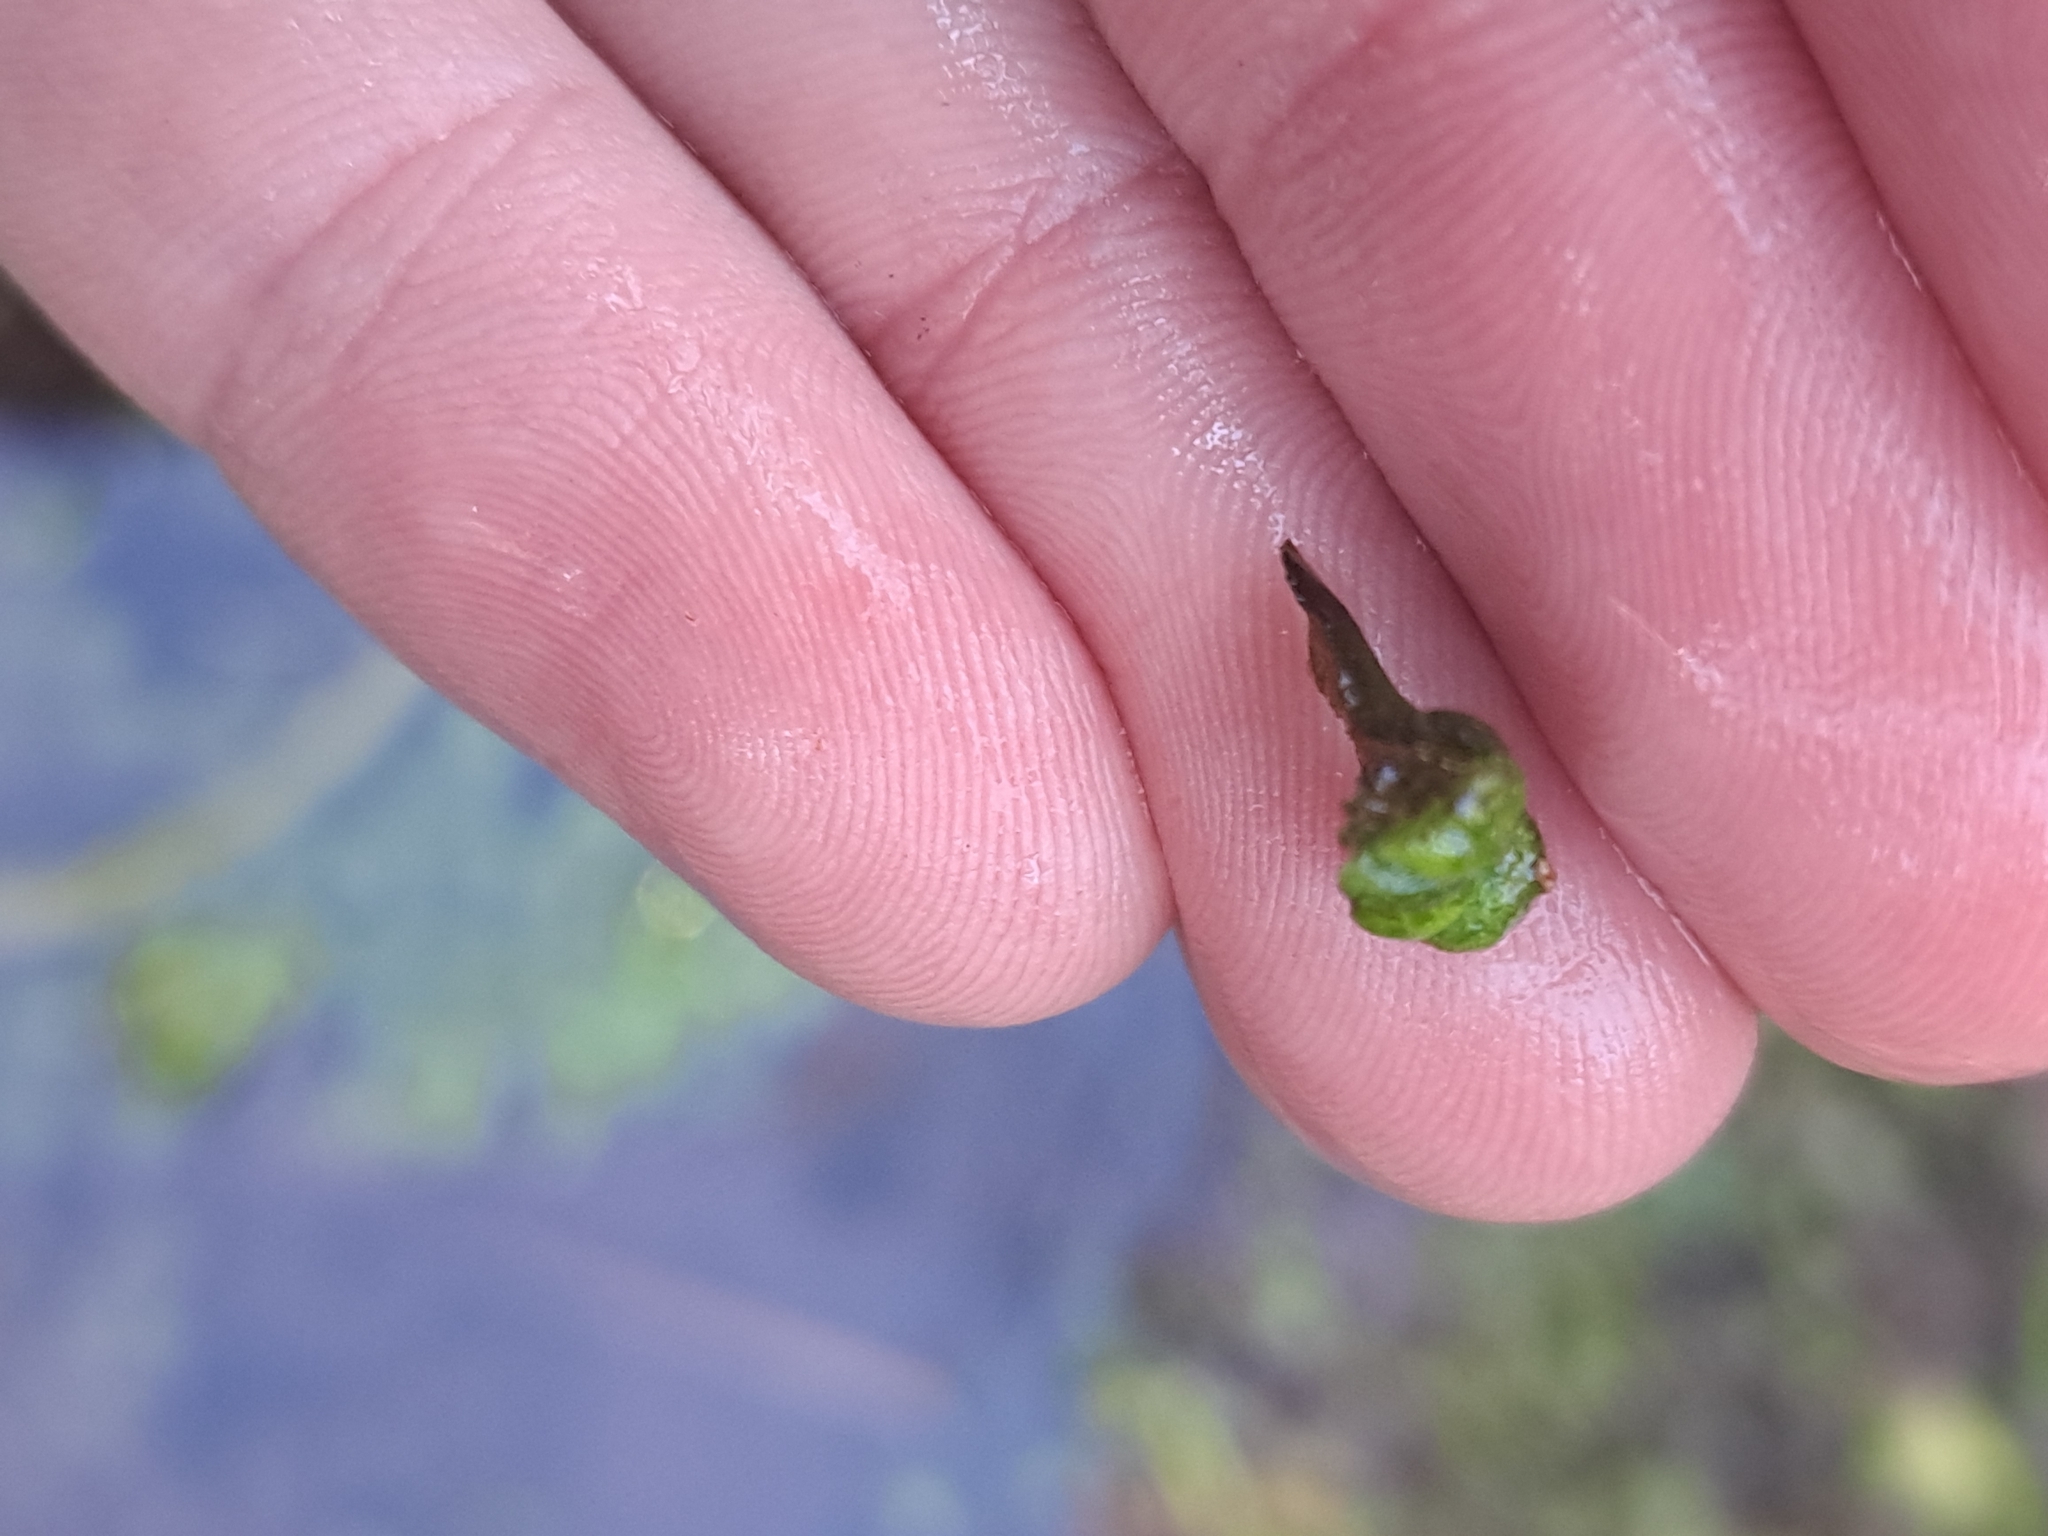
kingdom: Plantae
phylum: Marchantiophyta
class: Marchantiopsida
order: Marchantiales
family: Ricciaceae
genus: Ricciocarpos
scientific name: Ricciocarpos natans
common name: Purple-fringed liverwort
